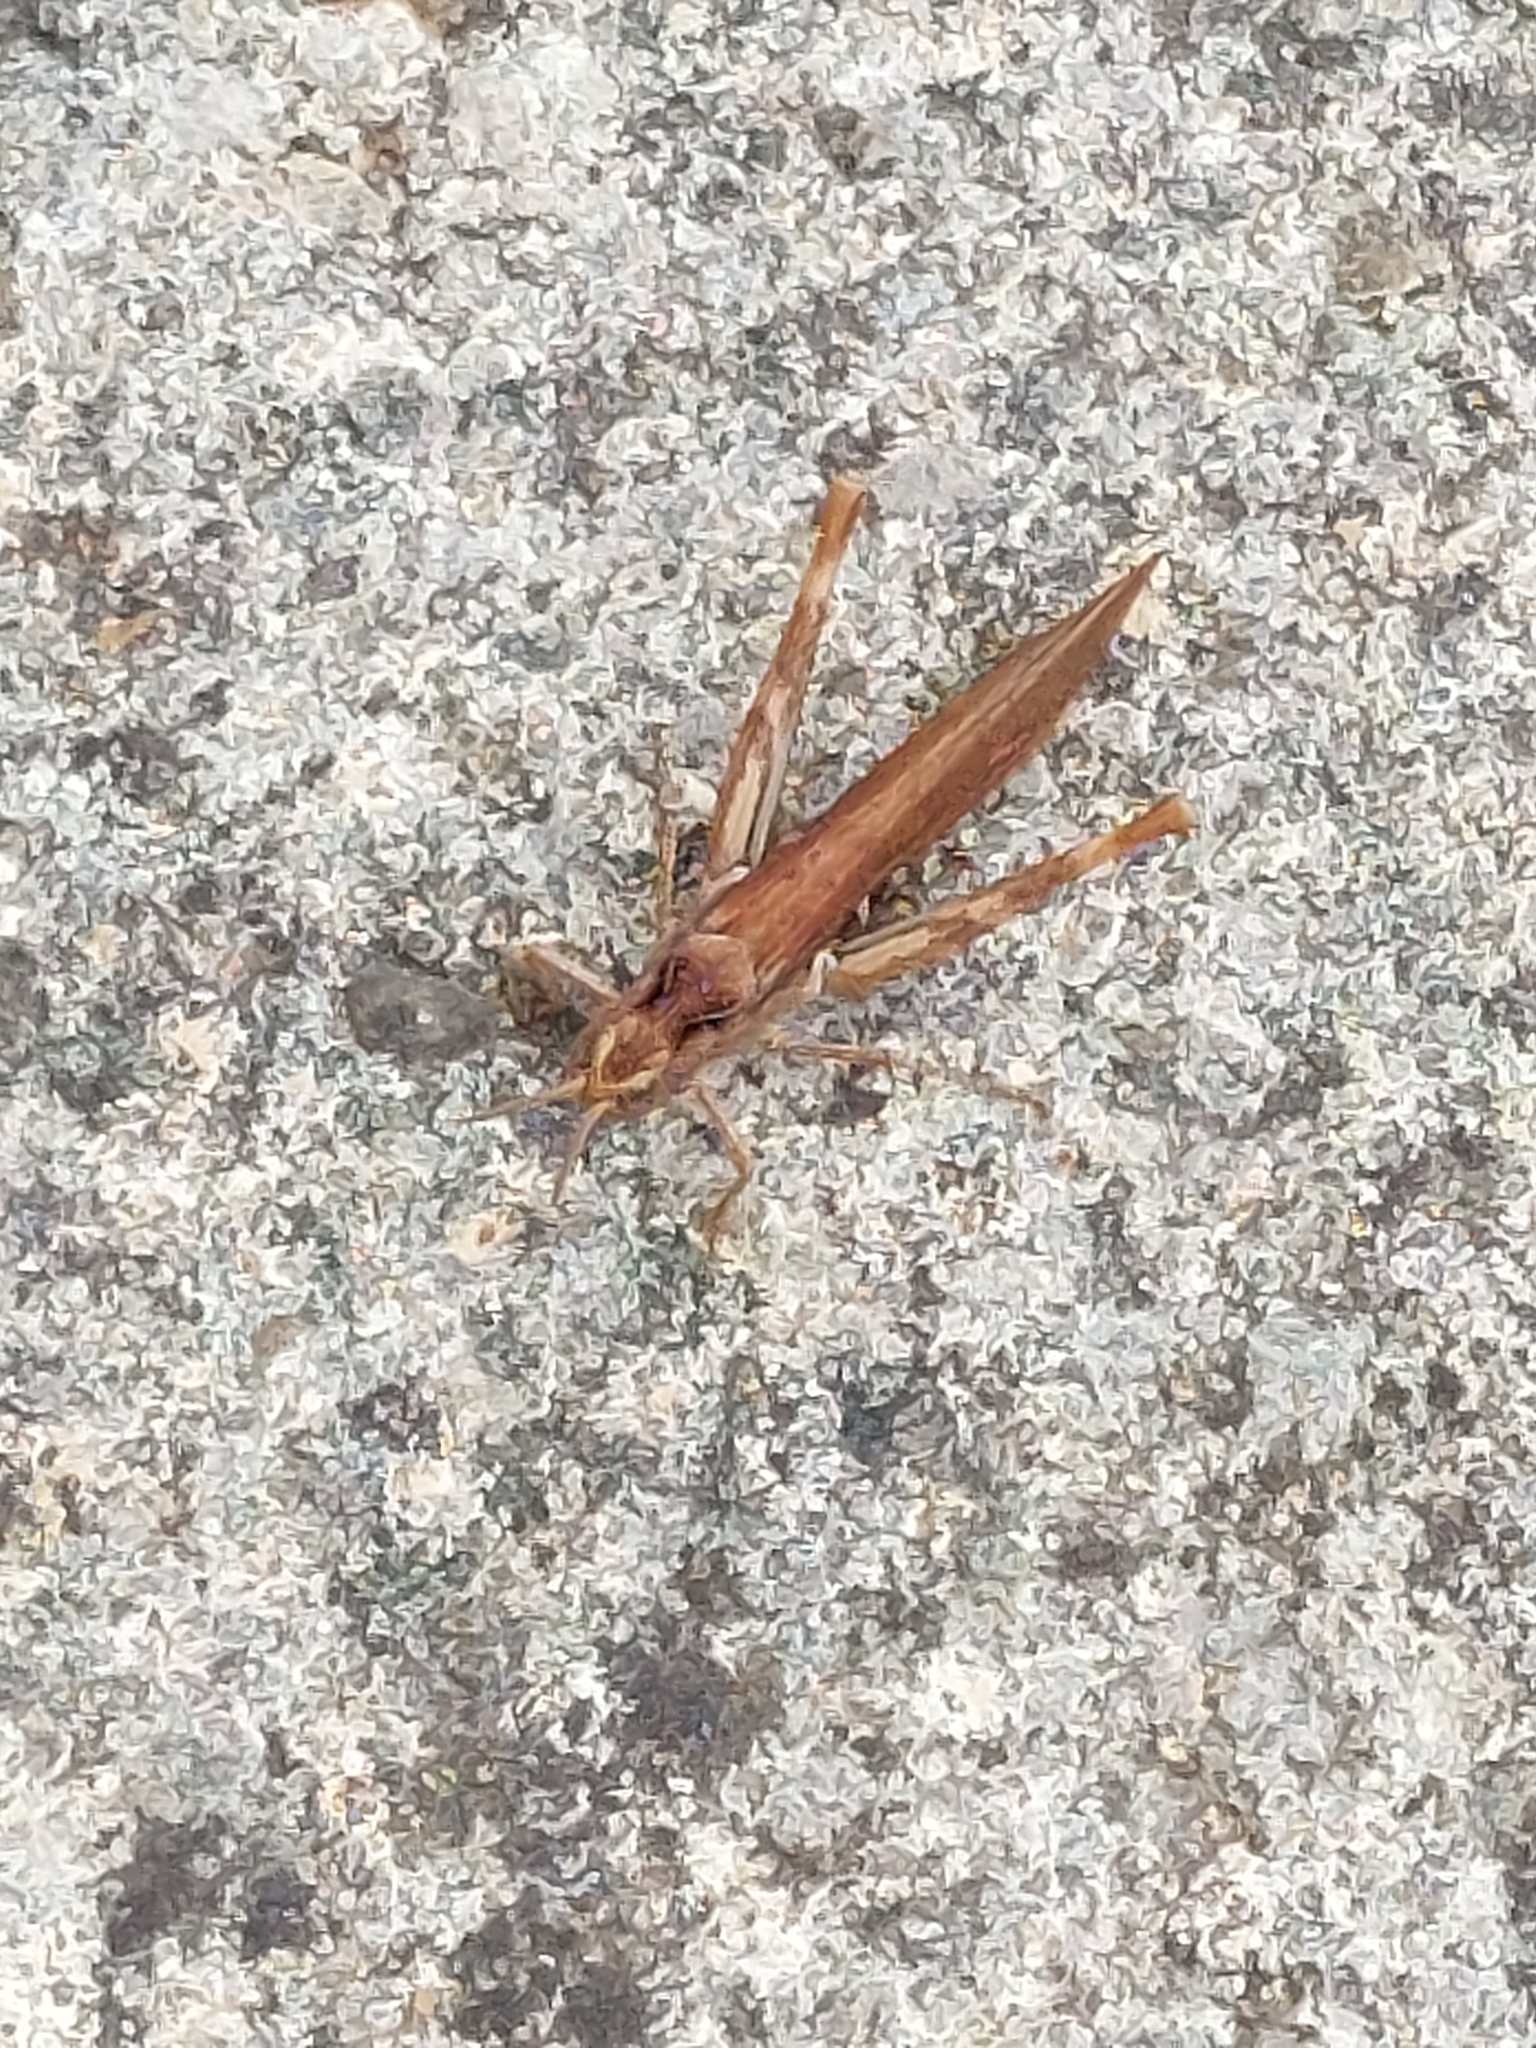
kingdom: Animalia
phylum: Arthropoda
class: Insecta
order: Orthoptera
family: Acrididae
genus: Chorthippus
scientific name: Chorthippus brunneus
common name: Field grasshopper
